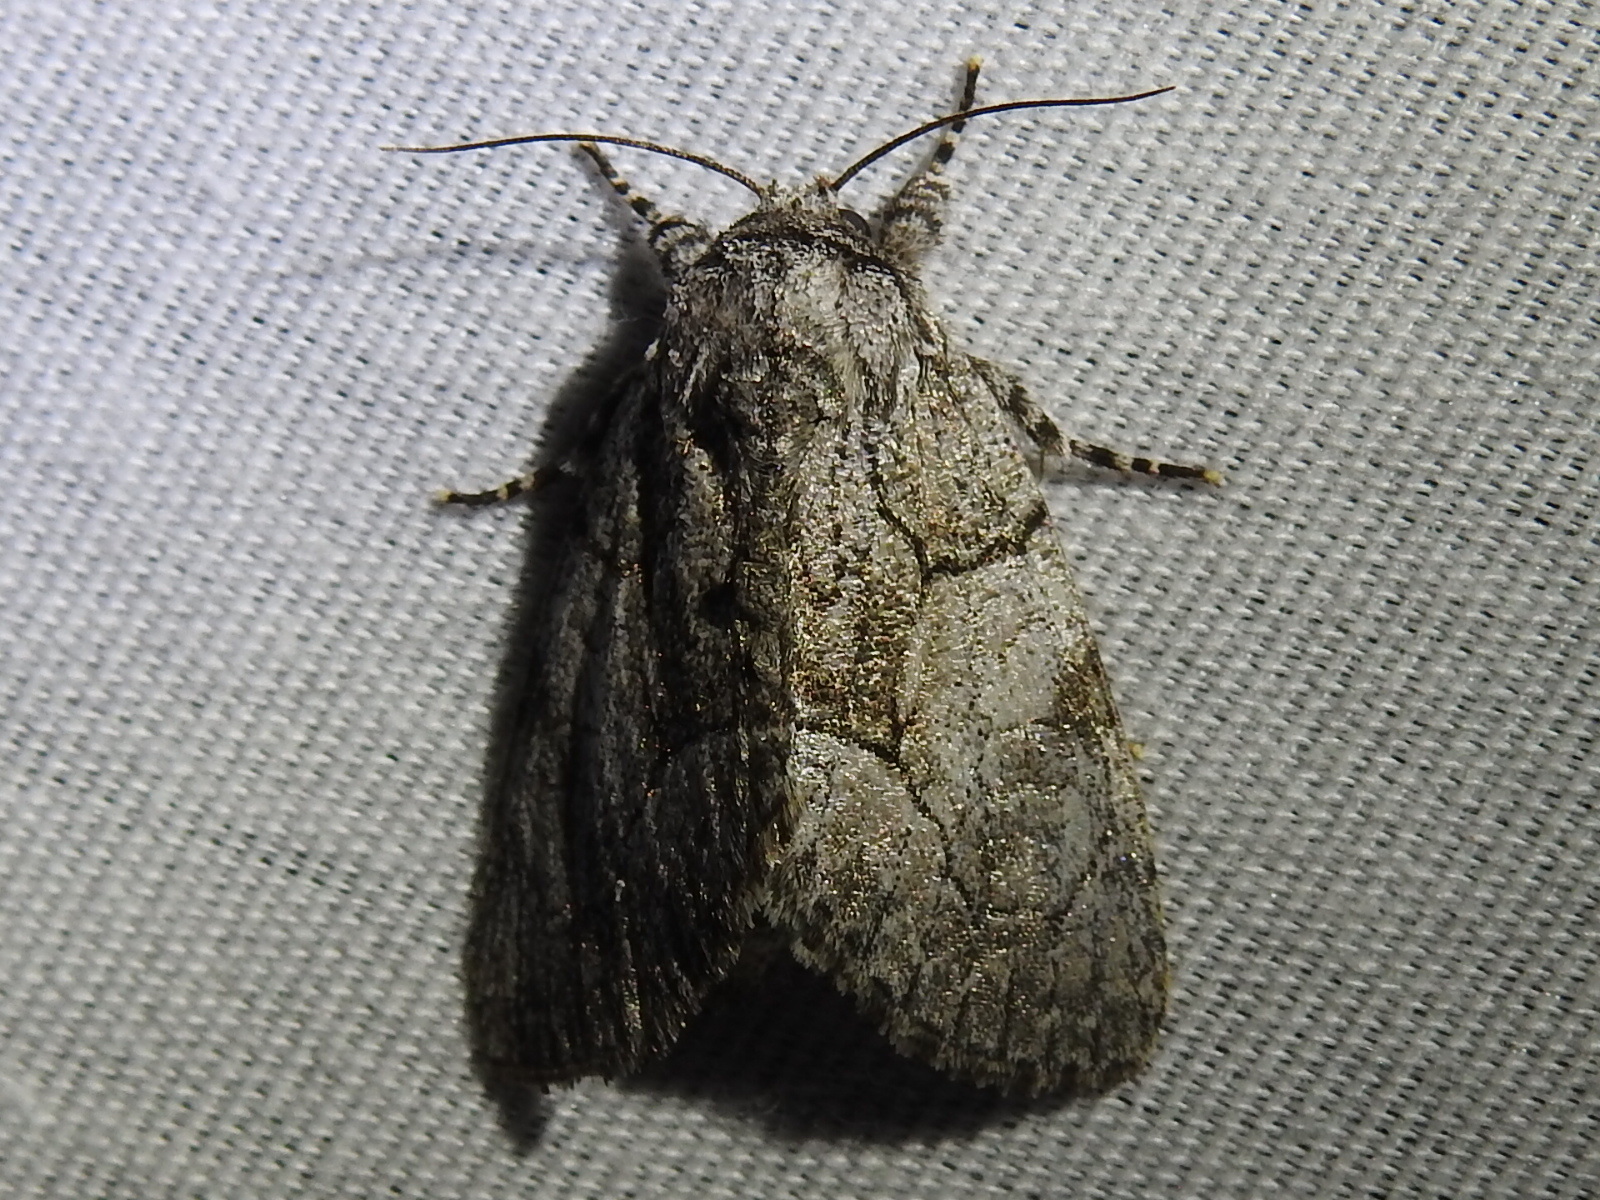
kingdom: Animalia
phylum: Arthropoda
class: Insecta
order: Lepidoptera
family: Noctuidae
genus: Raphia
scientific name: Raphia frater
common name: Brother
